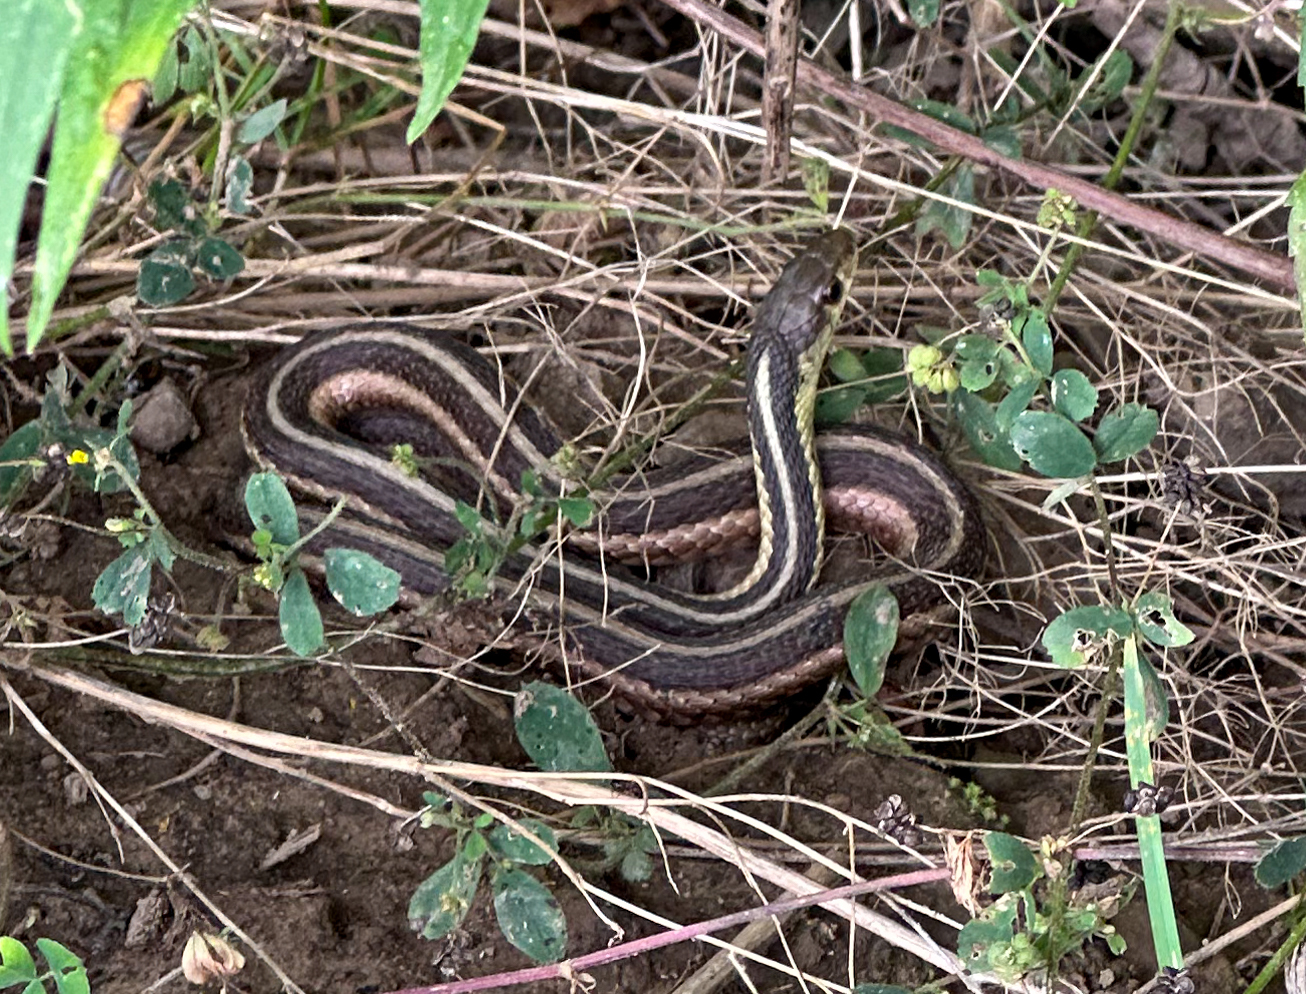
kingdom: Animalia
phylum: Chordata
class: Squamata
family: Colubridae
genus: Thamnophis
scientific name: Thamnophis sirtalis
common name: Common garter snake
